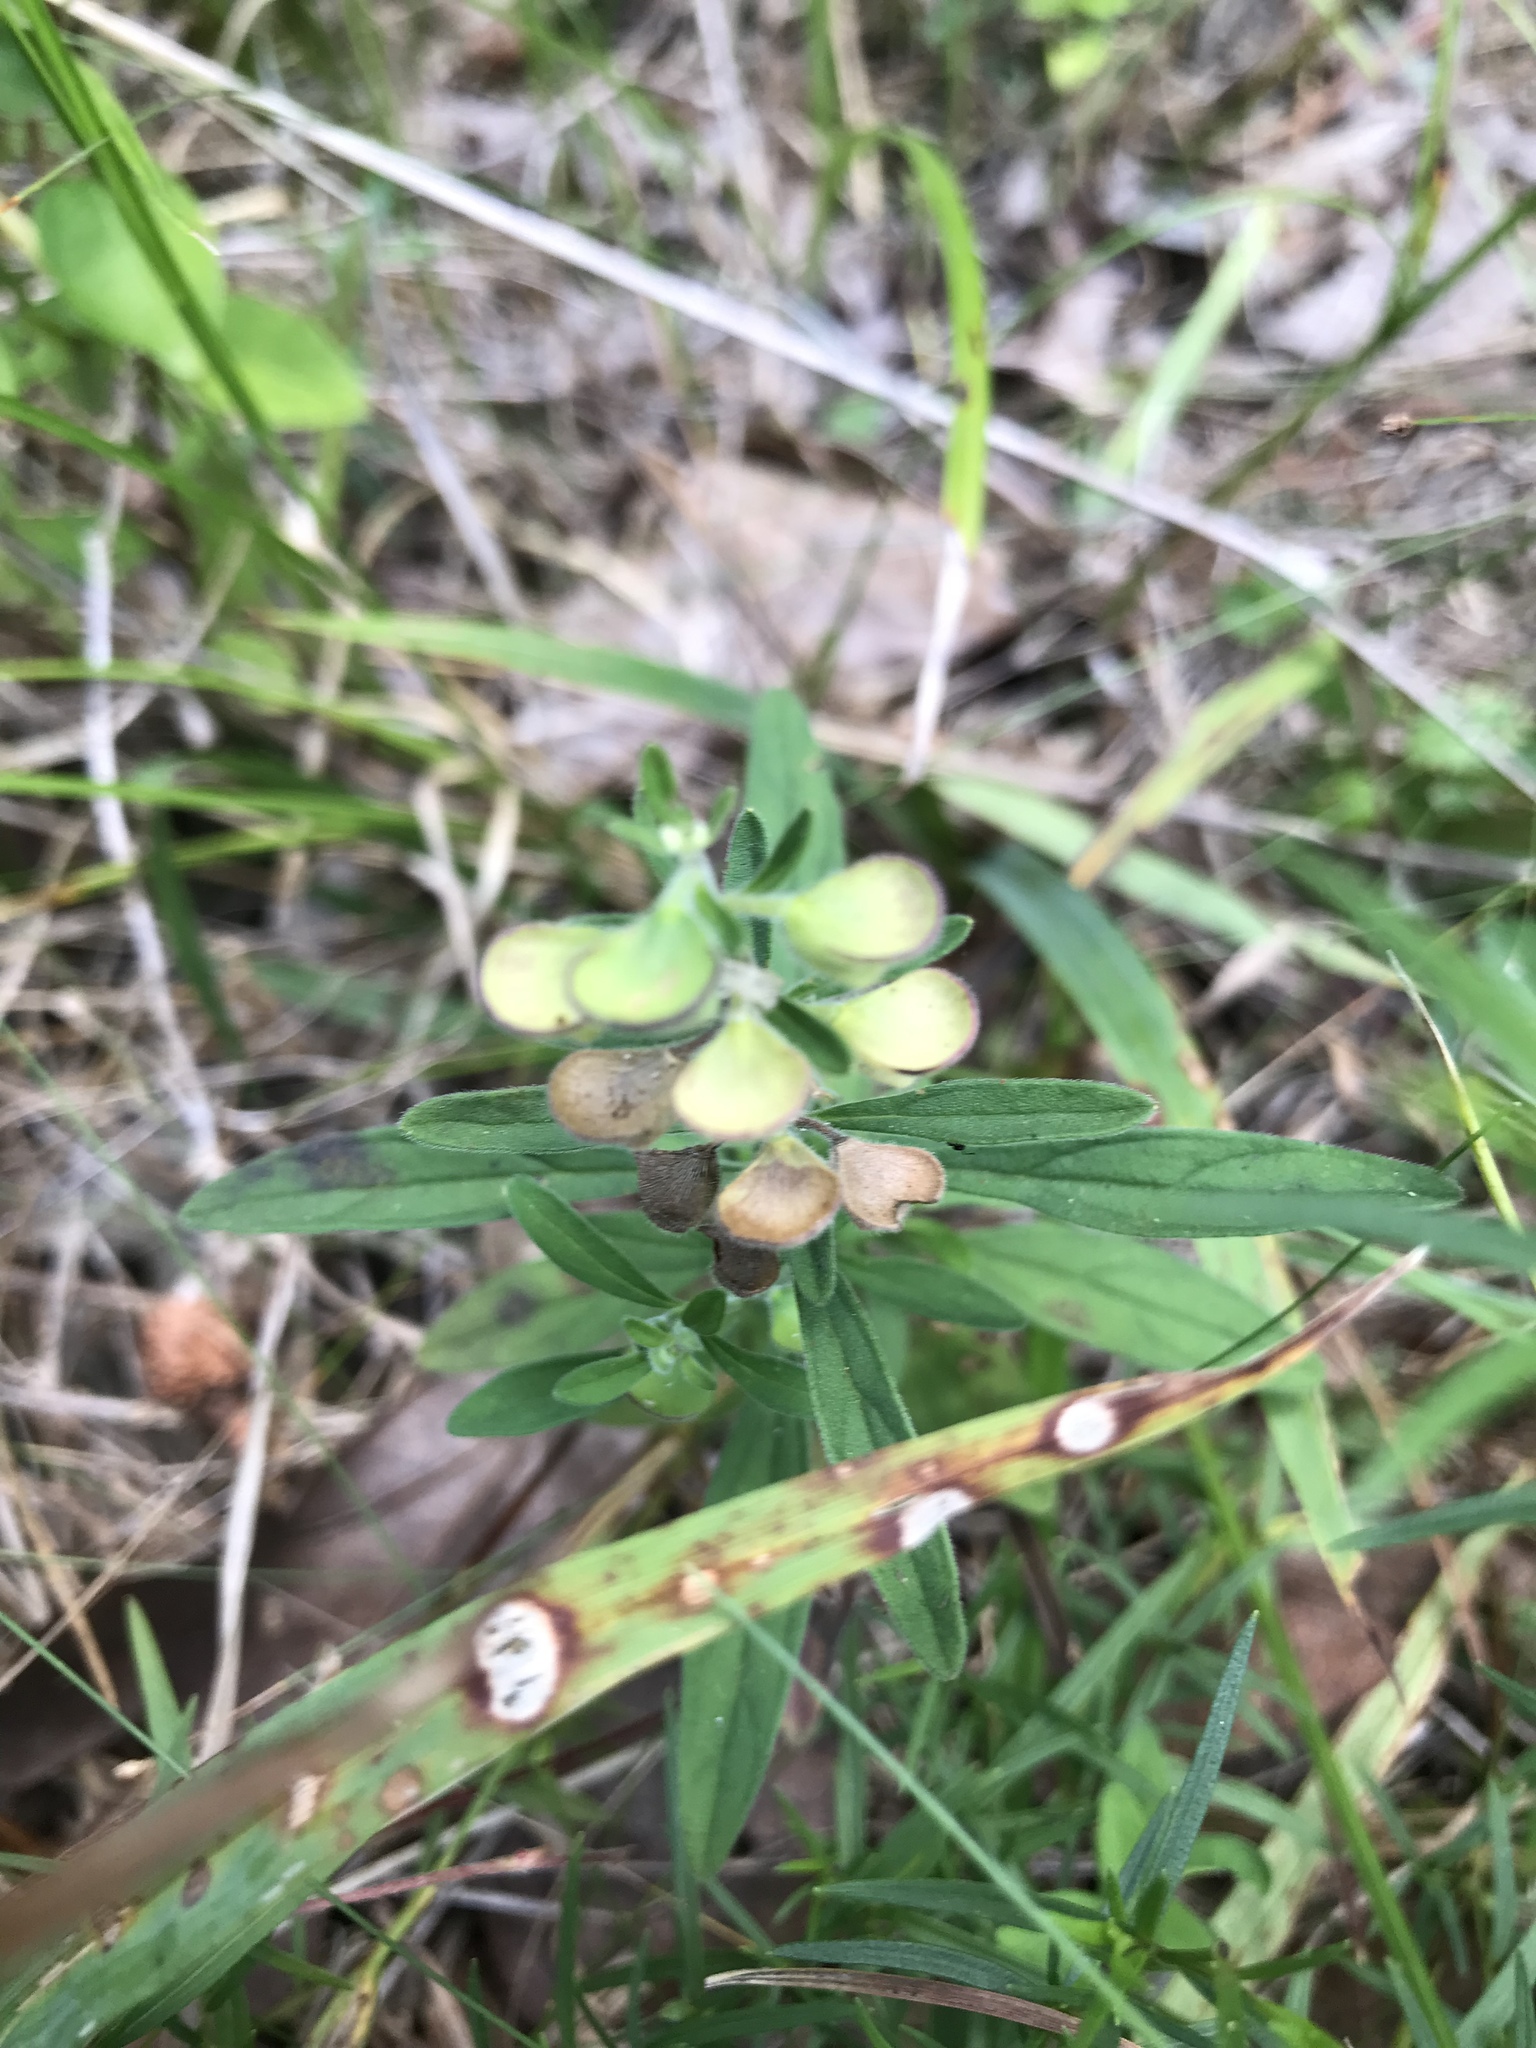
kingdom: Plantae
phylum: Tracheophyta
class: Magnoliopsida
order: Lamiales
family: Lamiaceae
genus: Scutellaria
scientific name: Scutellaria integrifolia
